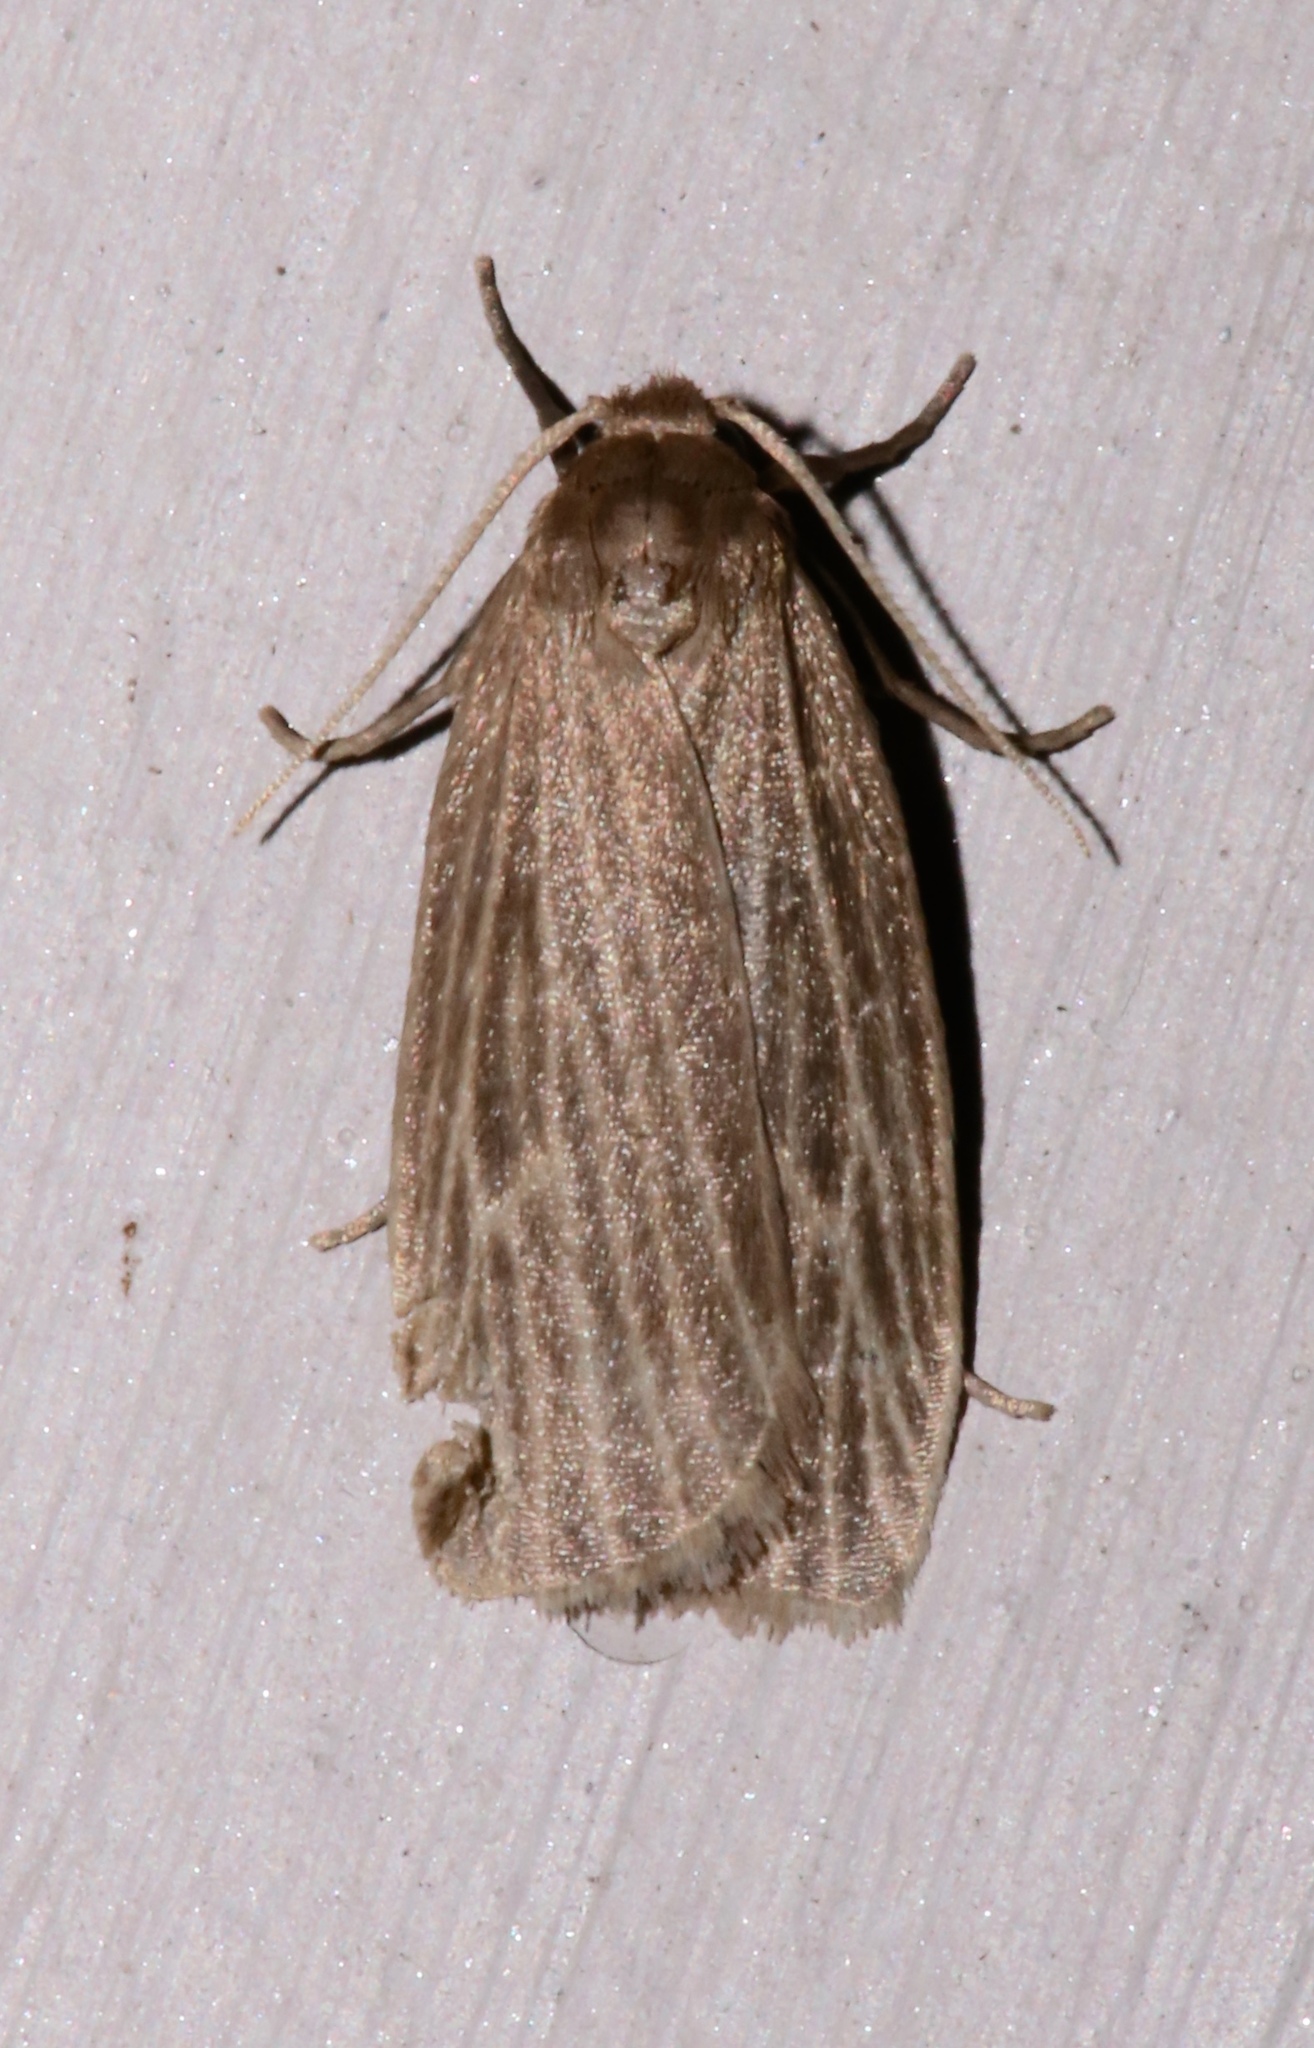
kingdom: Animalia
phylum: Arthropoda
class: Insecta
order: Lepidoptera
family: Erebidae
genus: Crambidia
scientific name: Crambidia pallida
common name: Pale lichen moth
